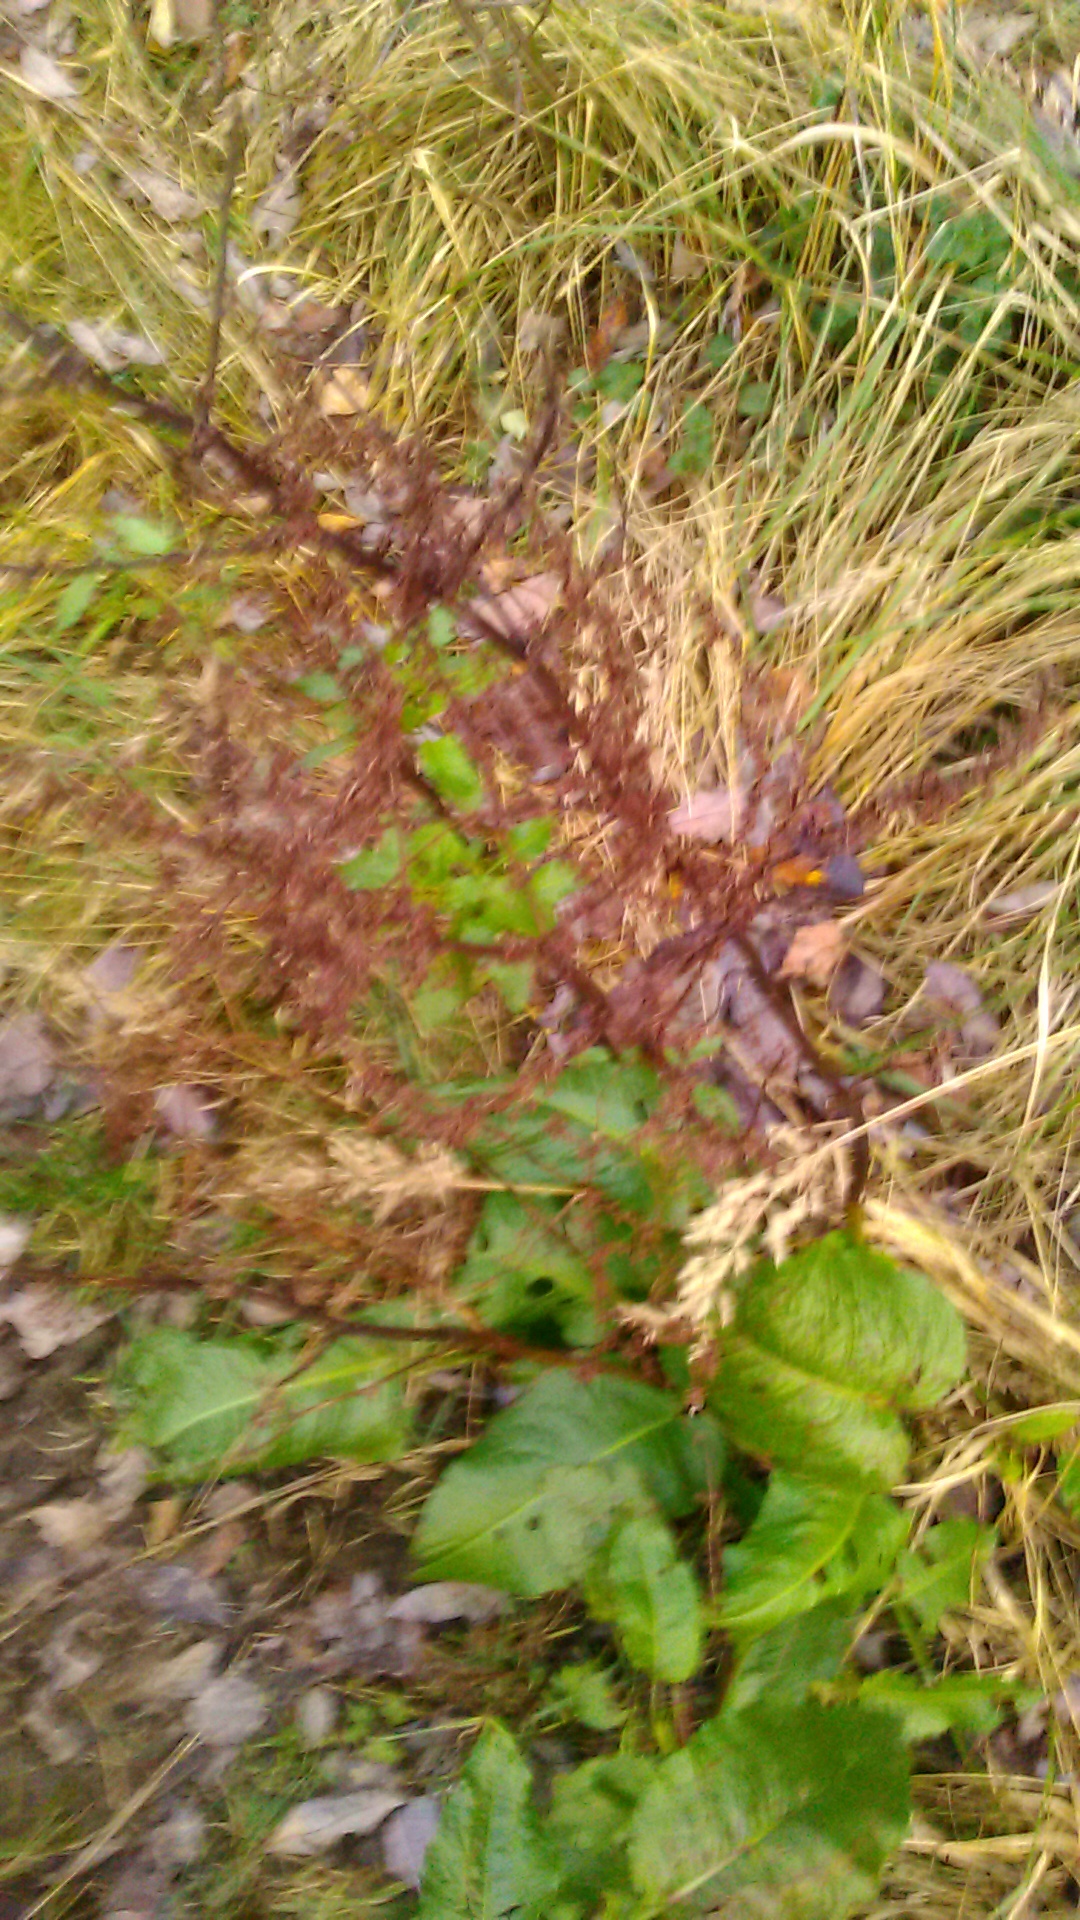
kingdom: Plantae
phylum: Tracheophyta
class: Magnoliopsida
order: Caryophyllales
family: Polygonaceae
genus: Rumex
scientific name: Rumex obtusifolius
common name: Bitter dock
